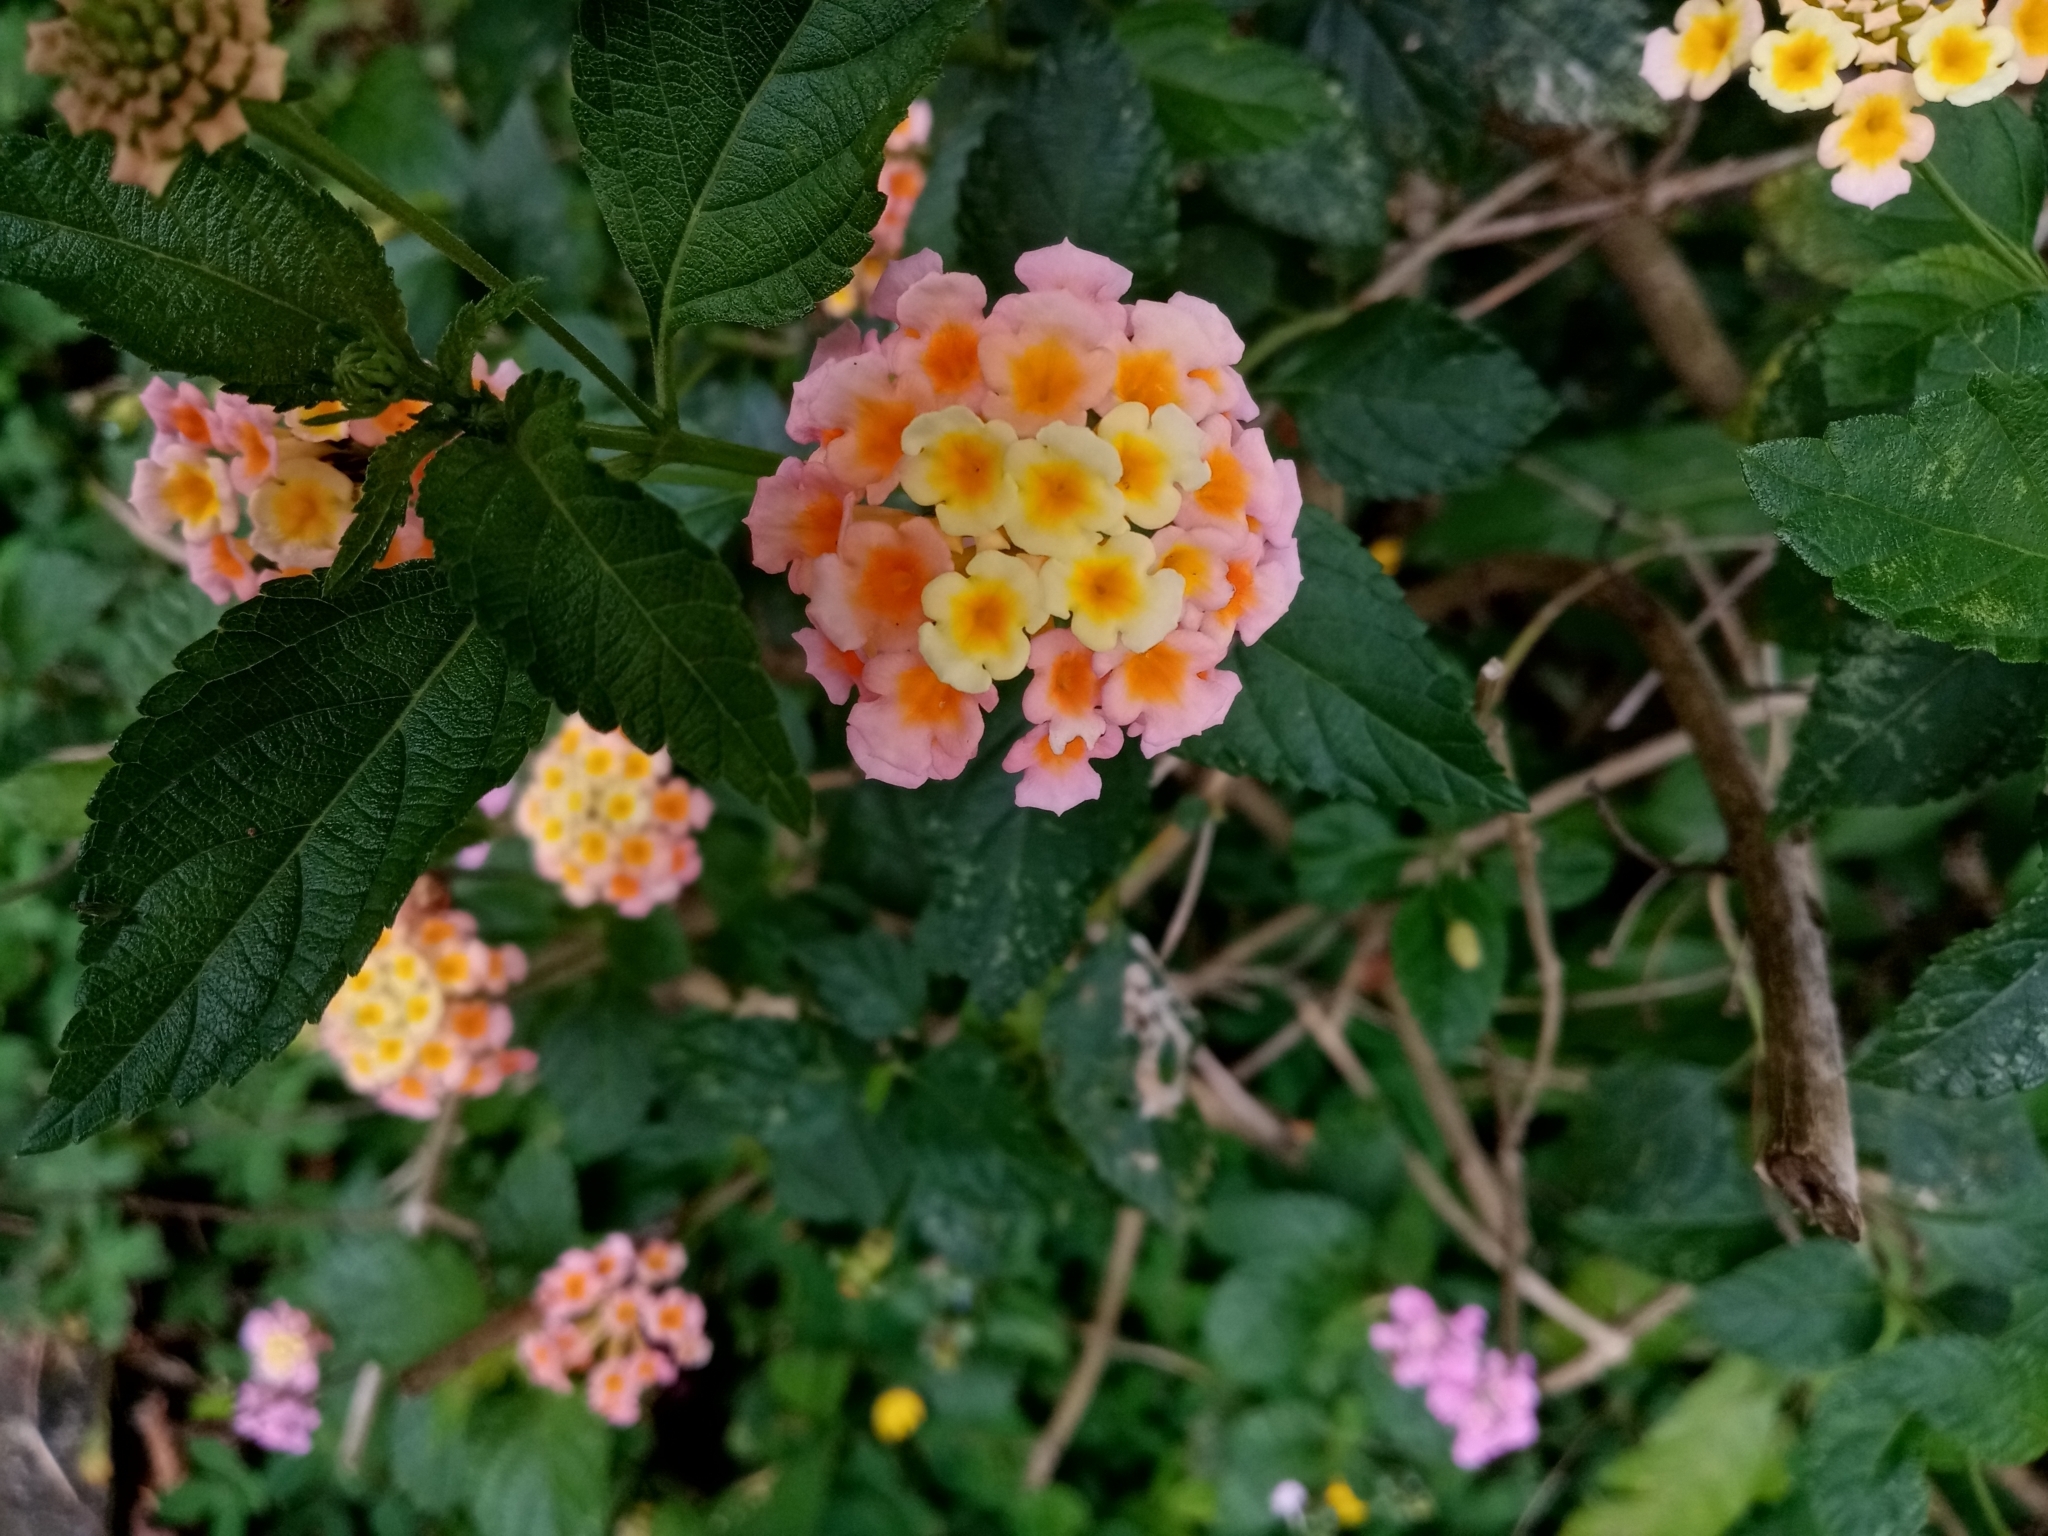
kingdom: Plantae
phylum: Tracheophyta
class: Magnoliopsida
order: Lamiales
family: Verbenaceae
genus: Lantana
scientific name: Lantana camara
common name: Lantana
